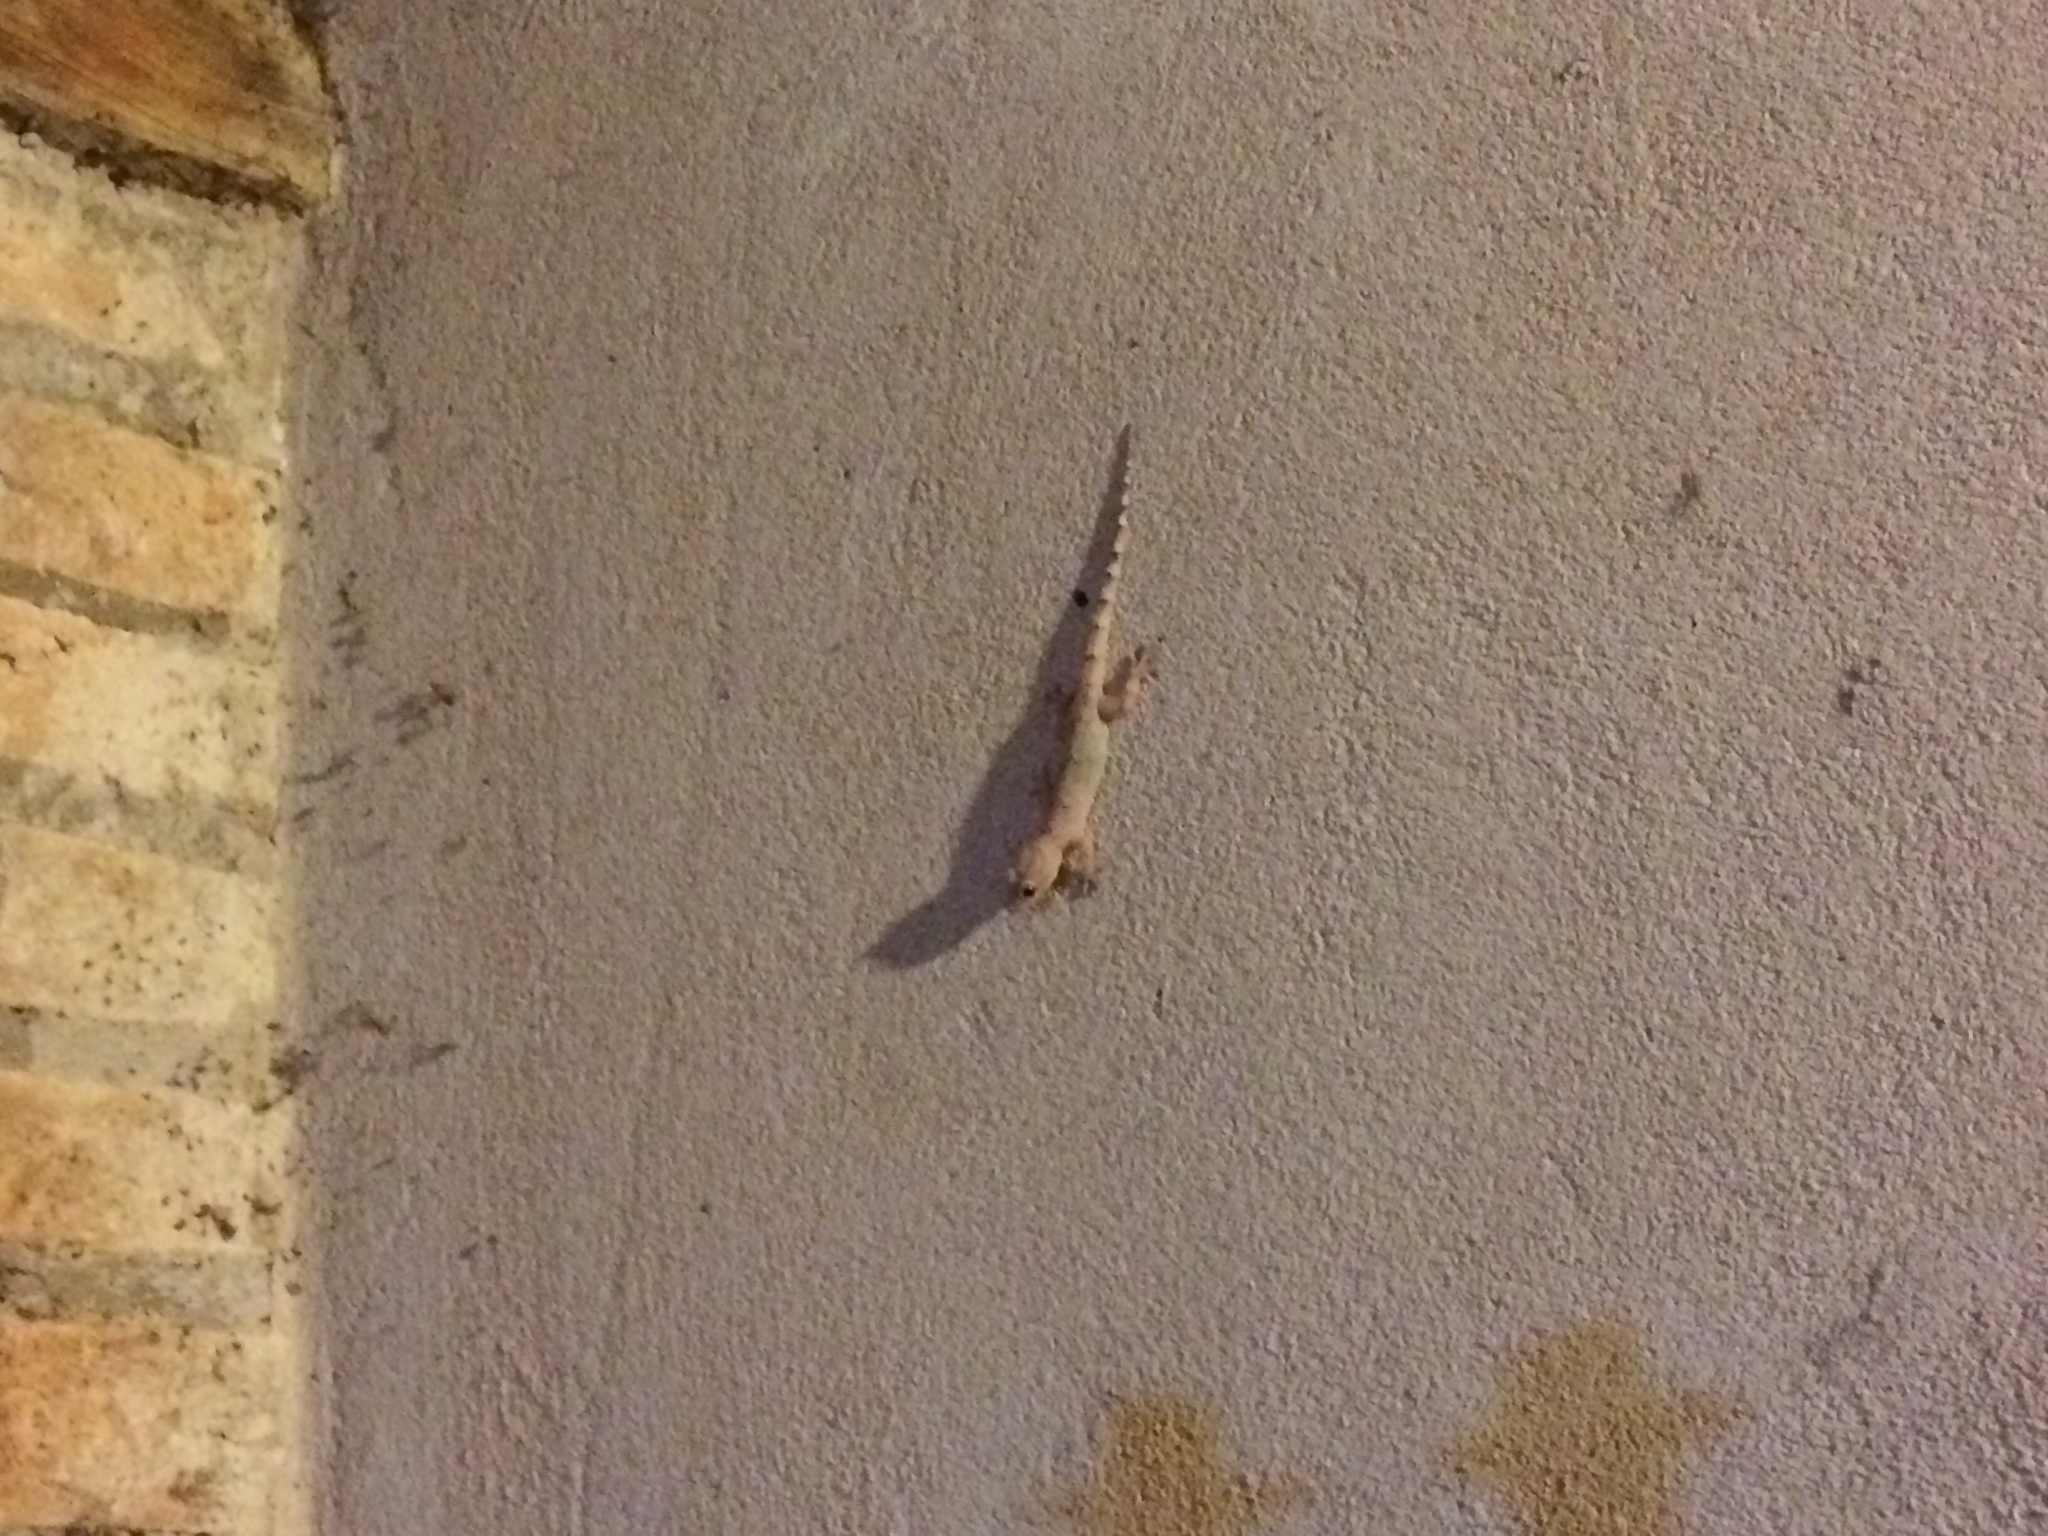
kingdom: Animalia
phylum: Chordata
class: Squamata
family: Gekkonidae
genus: Hemidactylus
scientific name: Hemidactylus mabouia
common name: House gecko
